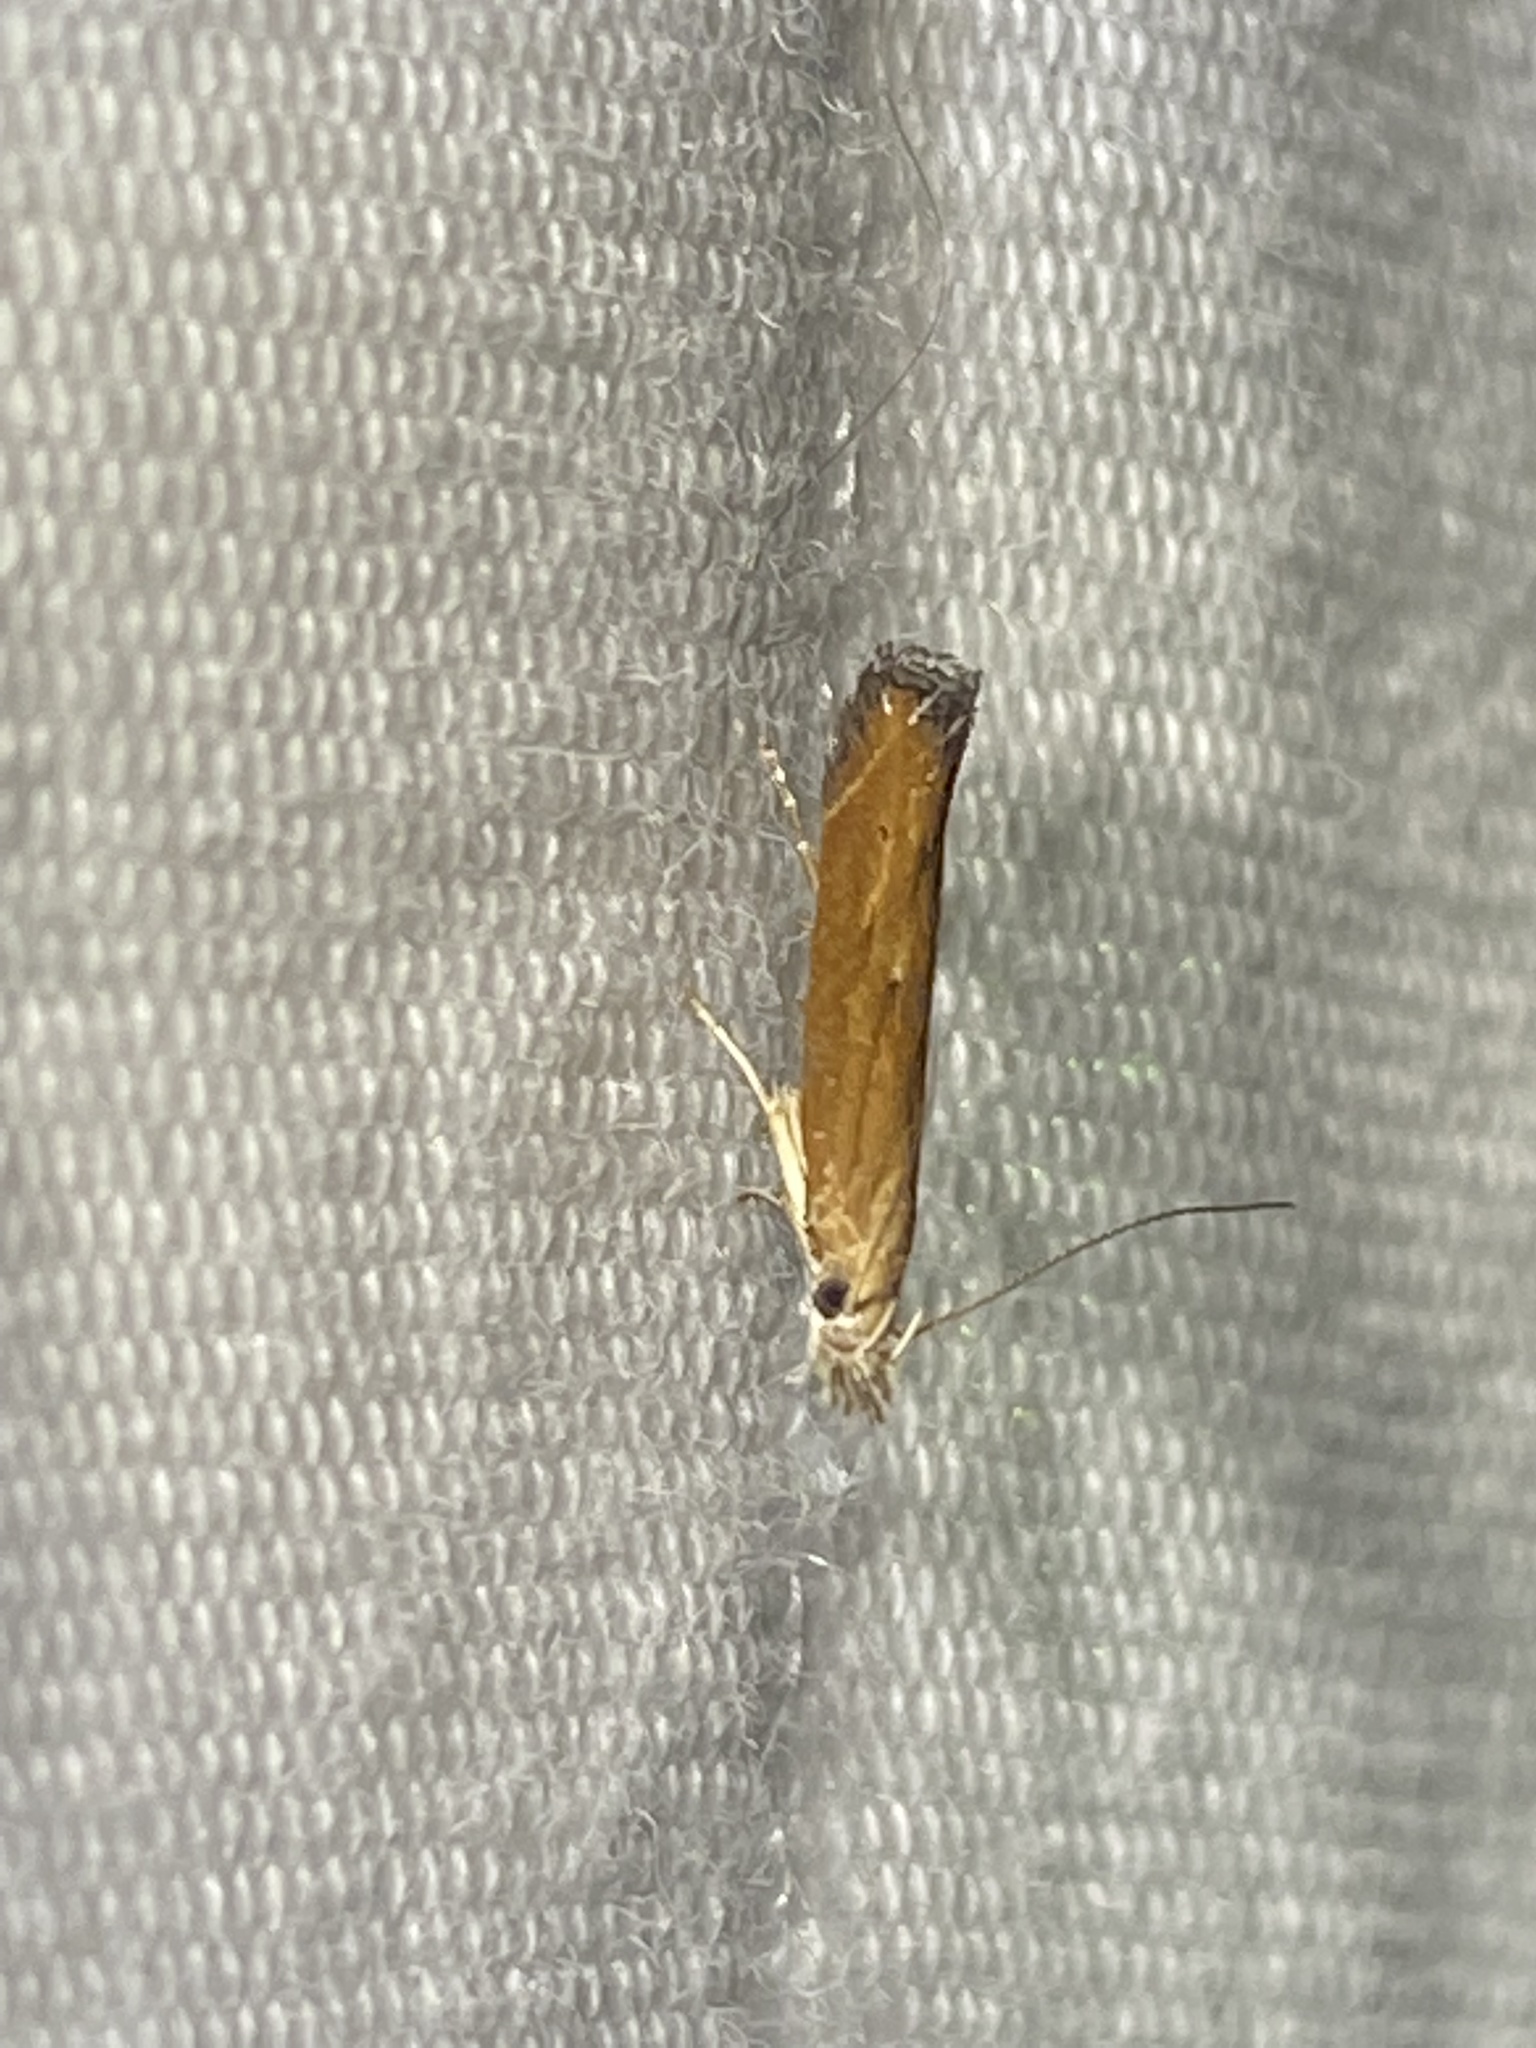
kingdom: Animalia
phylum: Arthropoda
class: Insecta
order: Lepidoptera
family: Gelechiidae
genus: Isophrictis
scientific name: Isophrictis anteliella
